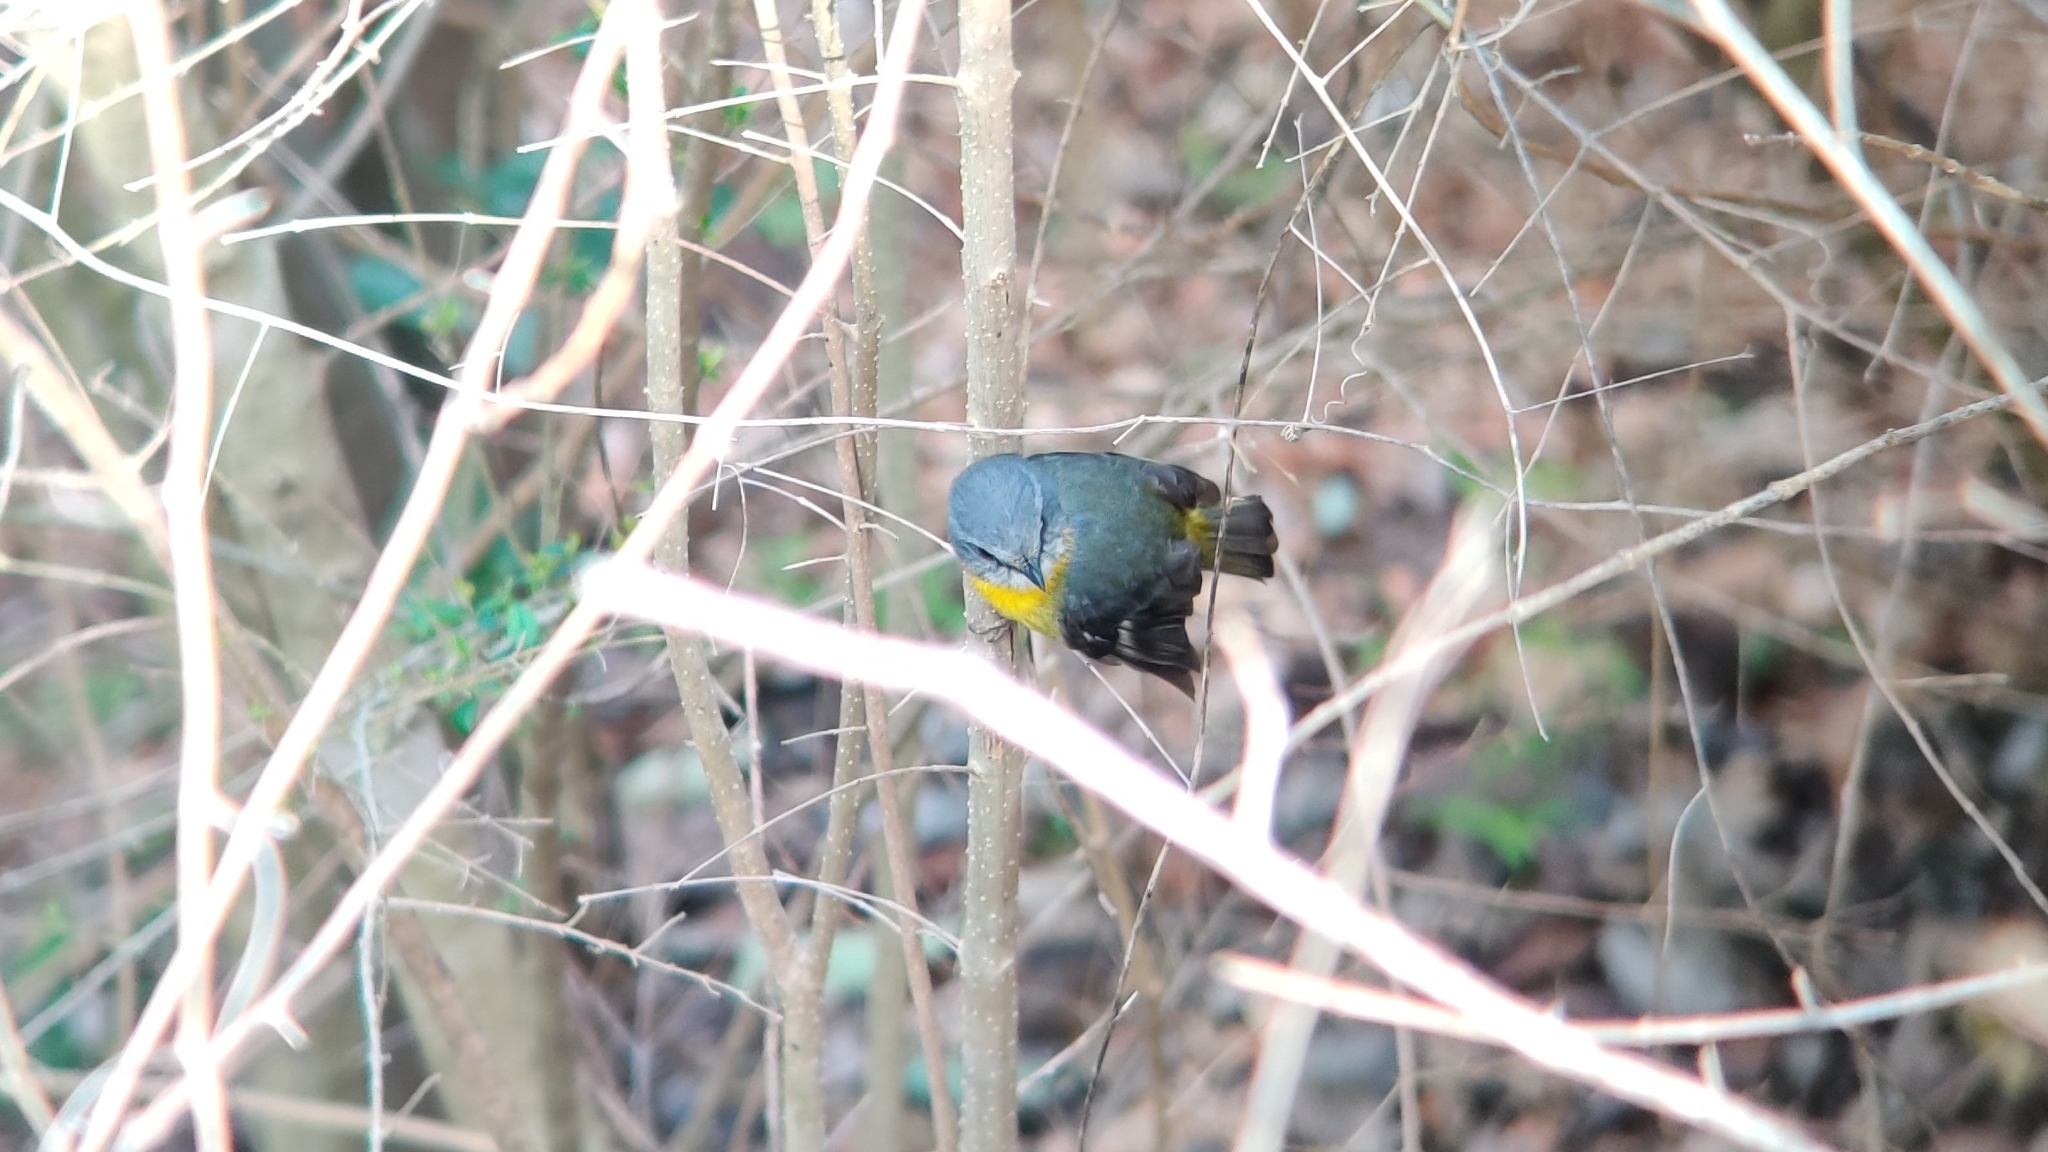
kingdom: Animalia
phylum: Chordata
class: Aves
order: Passeriformes
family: Petroicidae
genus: Eopsaltria
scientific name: Eopsaltria australis
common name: Eastern yellow robin
